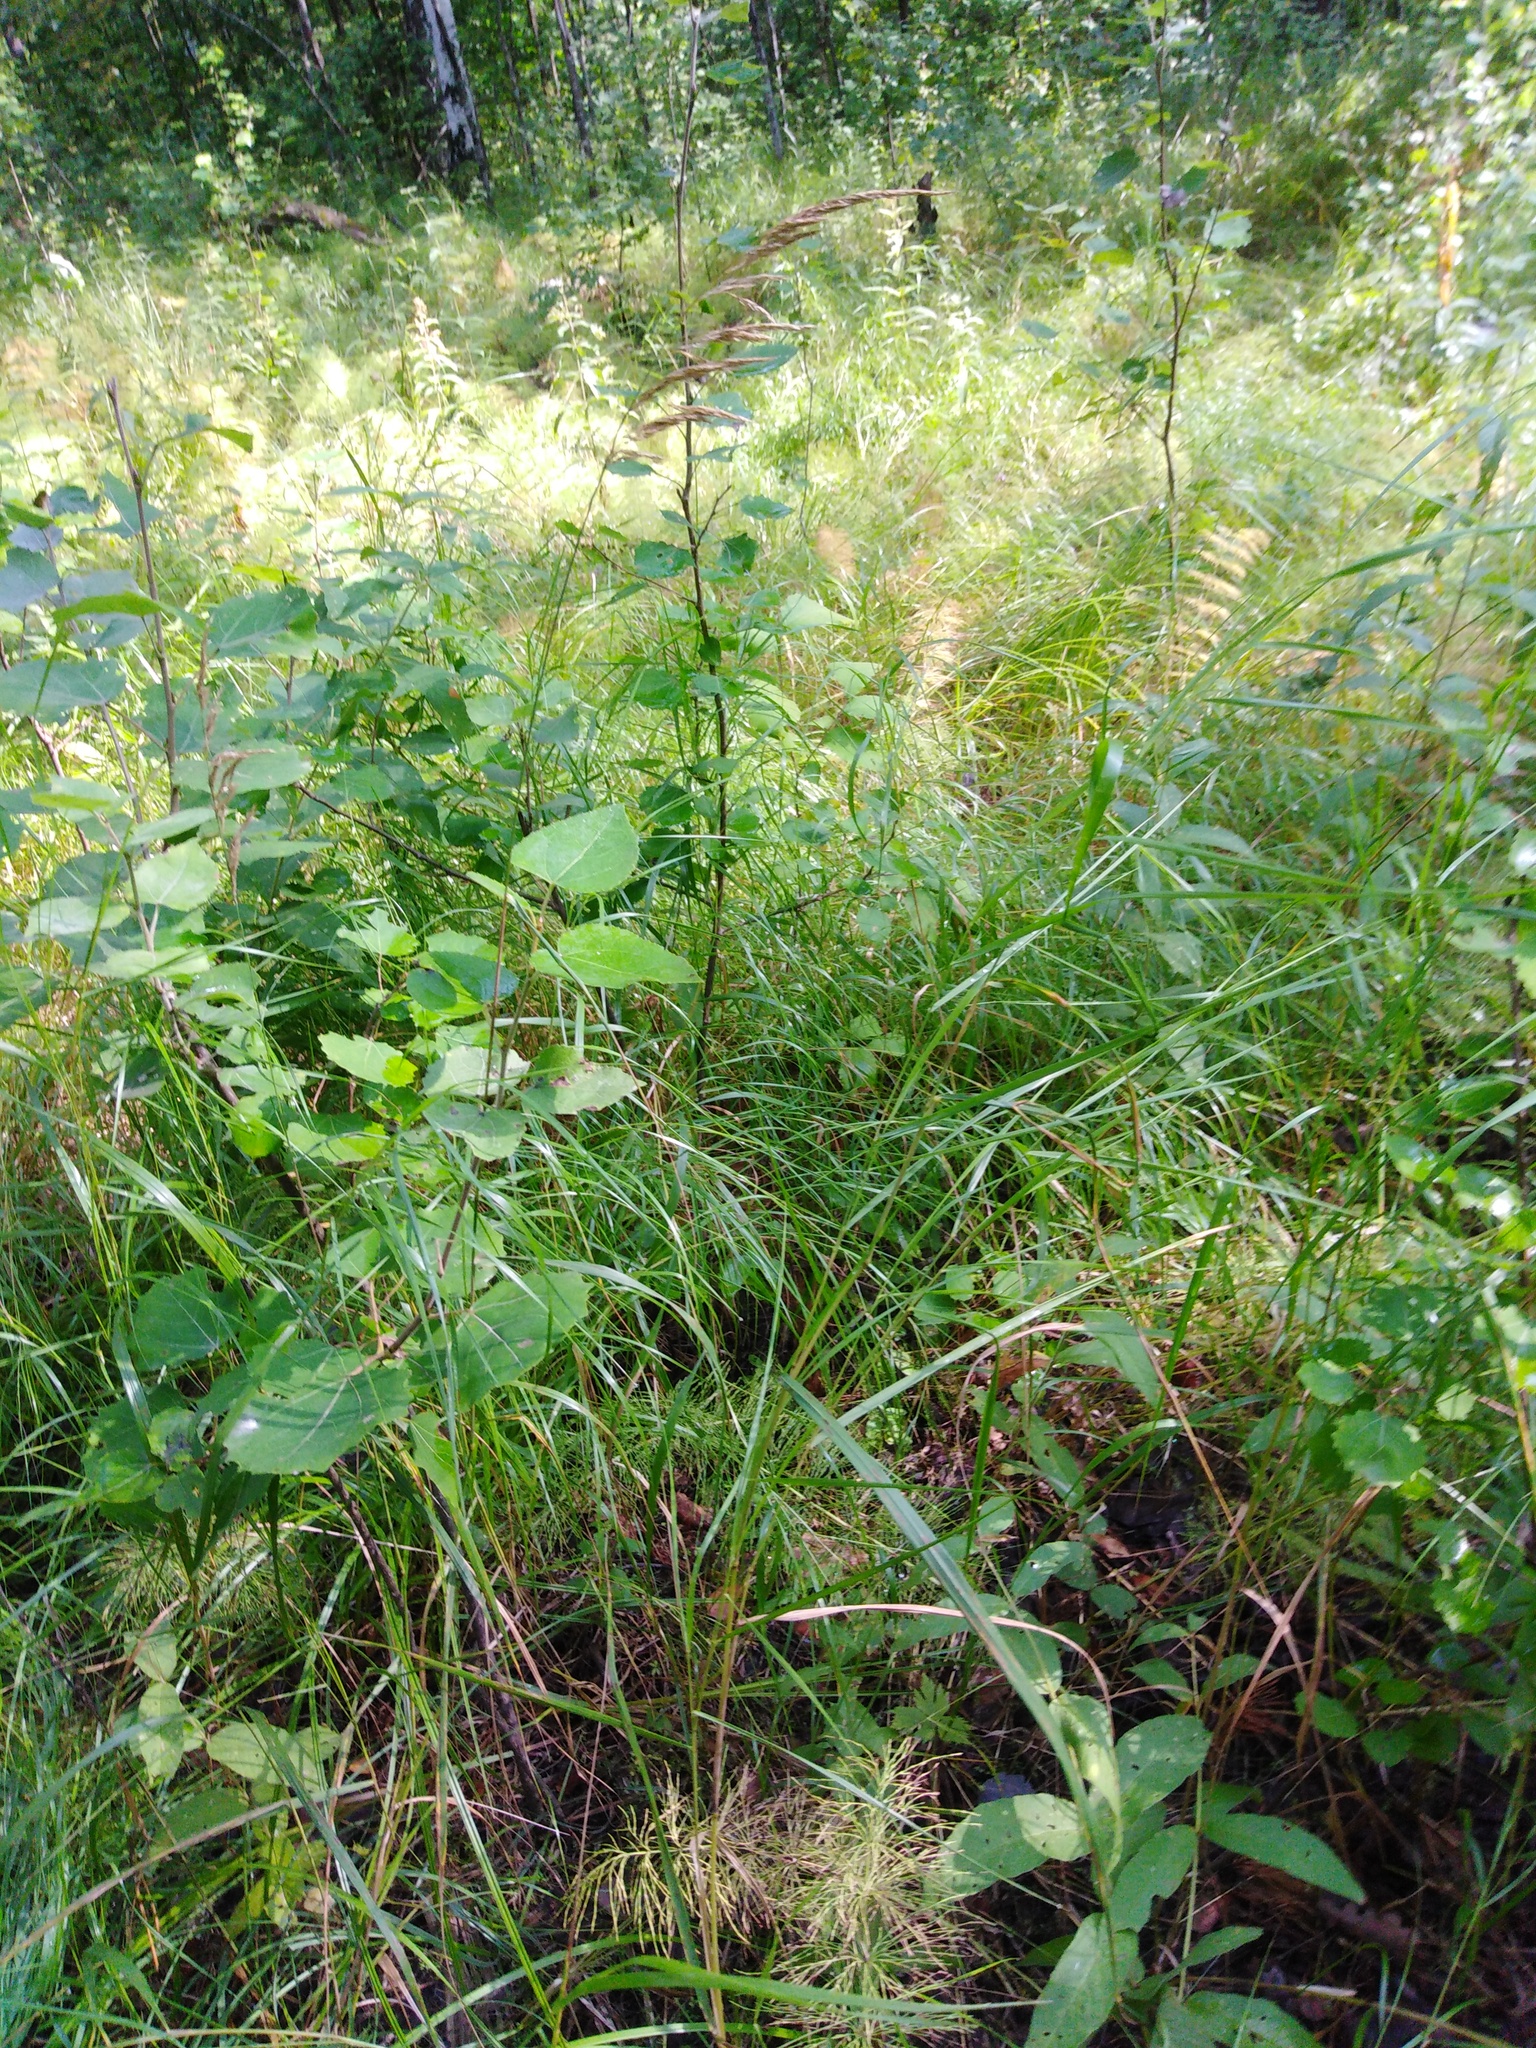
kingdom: Plantae
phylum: Tracheophyta
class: Liliopsida
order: Poales
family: Poaceae
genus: Calamagrostis
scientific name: Calamagrostis canescens
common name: Purple small-reed
